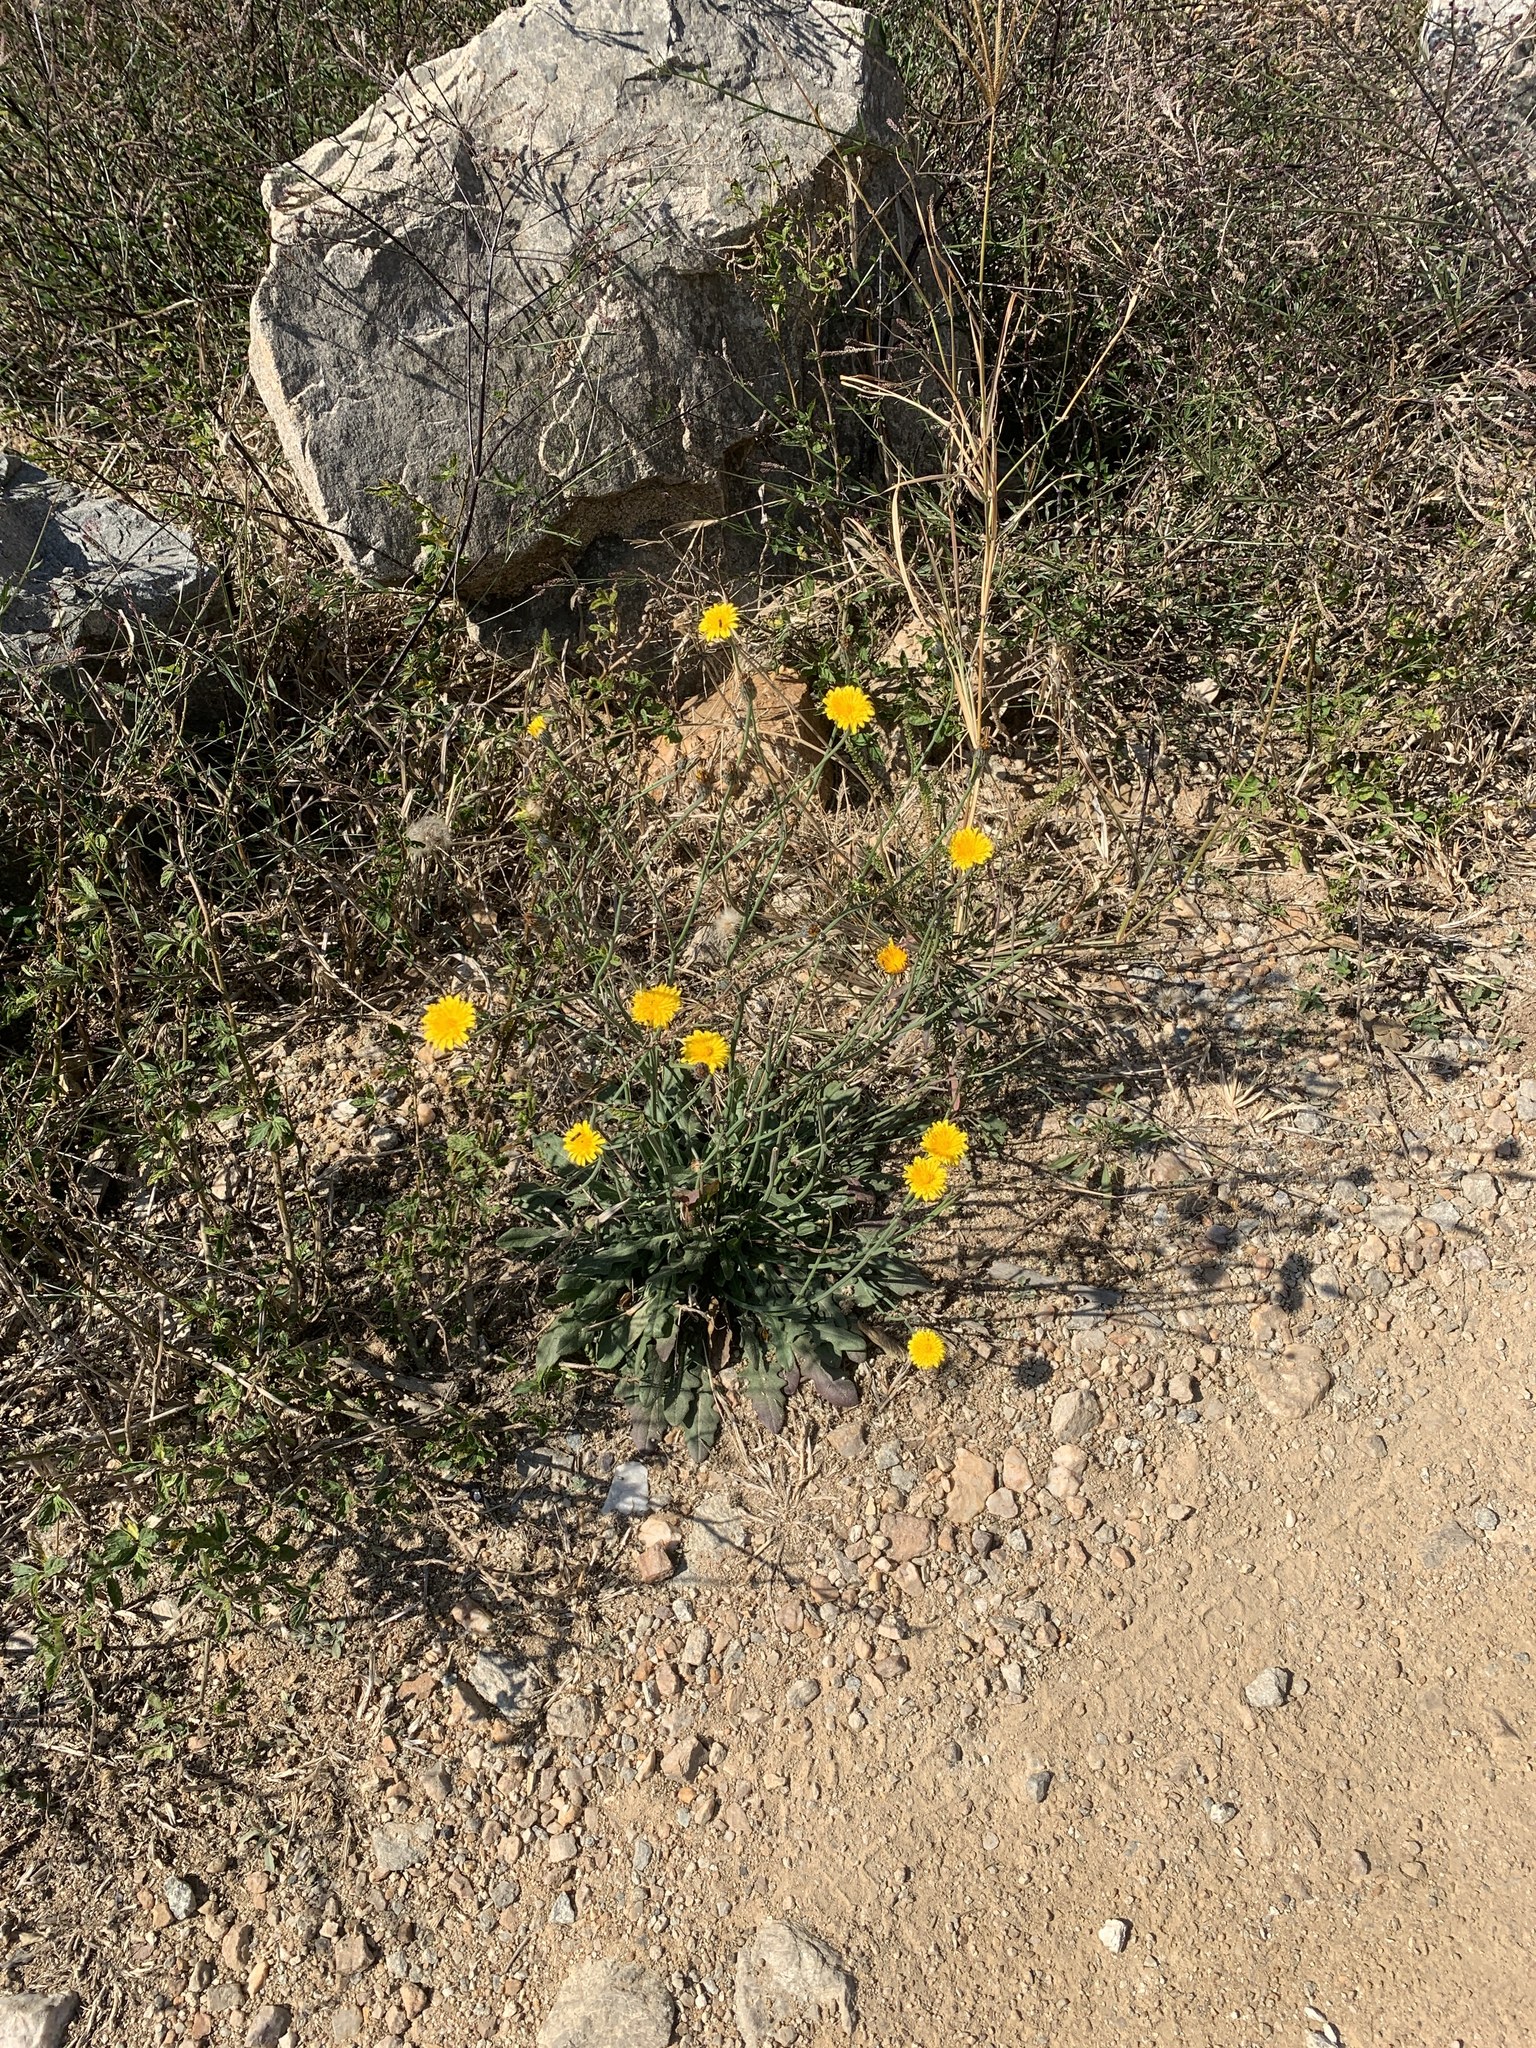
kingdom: Plantae
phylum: Tracheophyta
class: Magnoliopsida
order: Asterales
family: Asteraceae
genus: Hypochaeris
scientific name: Hypochaeris radicata
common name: Flatweed
